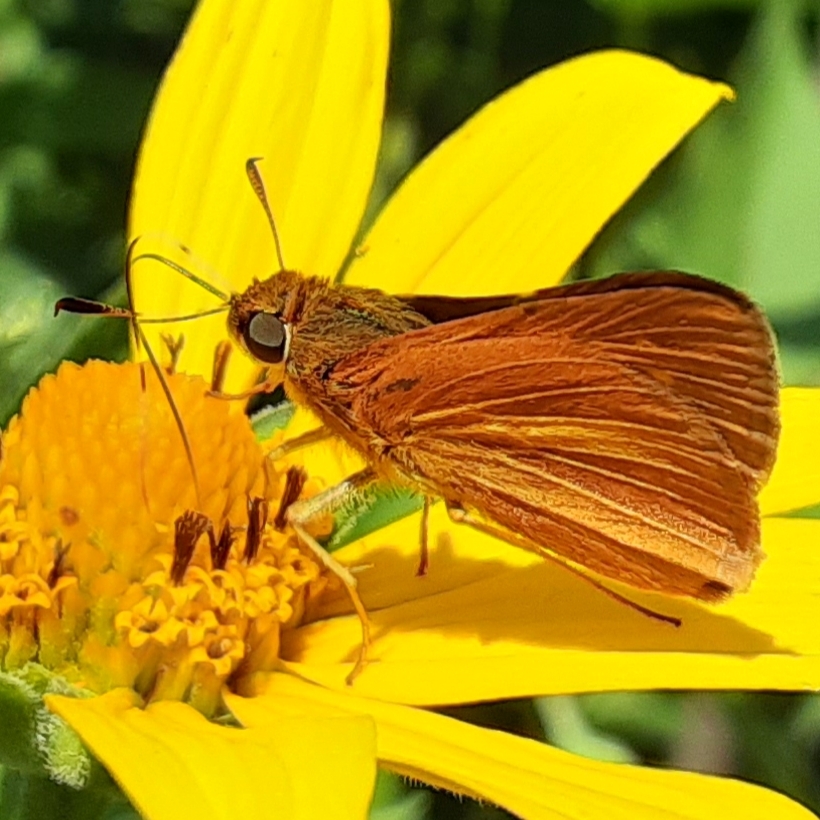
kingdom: Animalia
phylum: Arthropoda
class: Insecta
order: Lepidoptera
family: Hesperiidae
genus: Euphyes
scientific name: Euphyes dion
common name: Dion skipper
